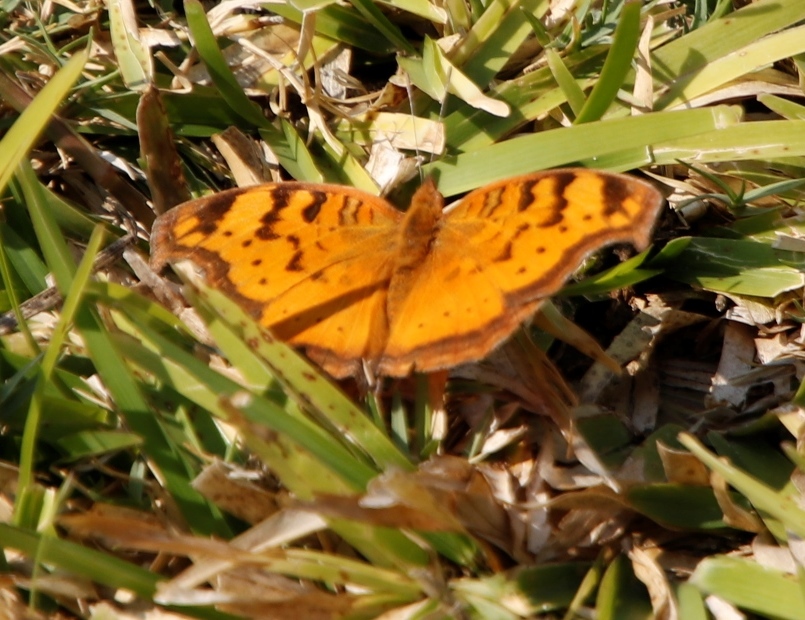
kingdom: Animalia
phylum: Arthropoda
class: Insecta
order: Lepidoptera
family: Nymphalidae
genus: Junonia
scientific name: Junonia antilope
